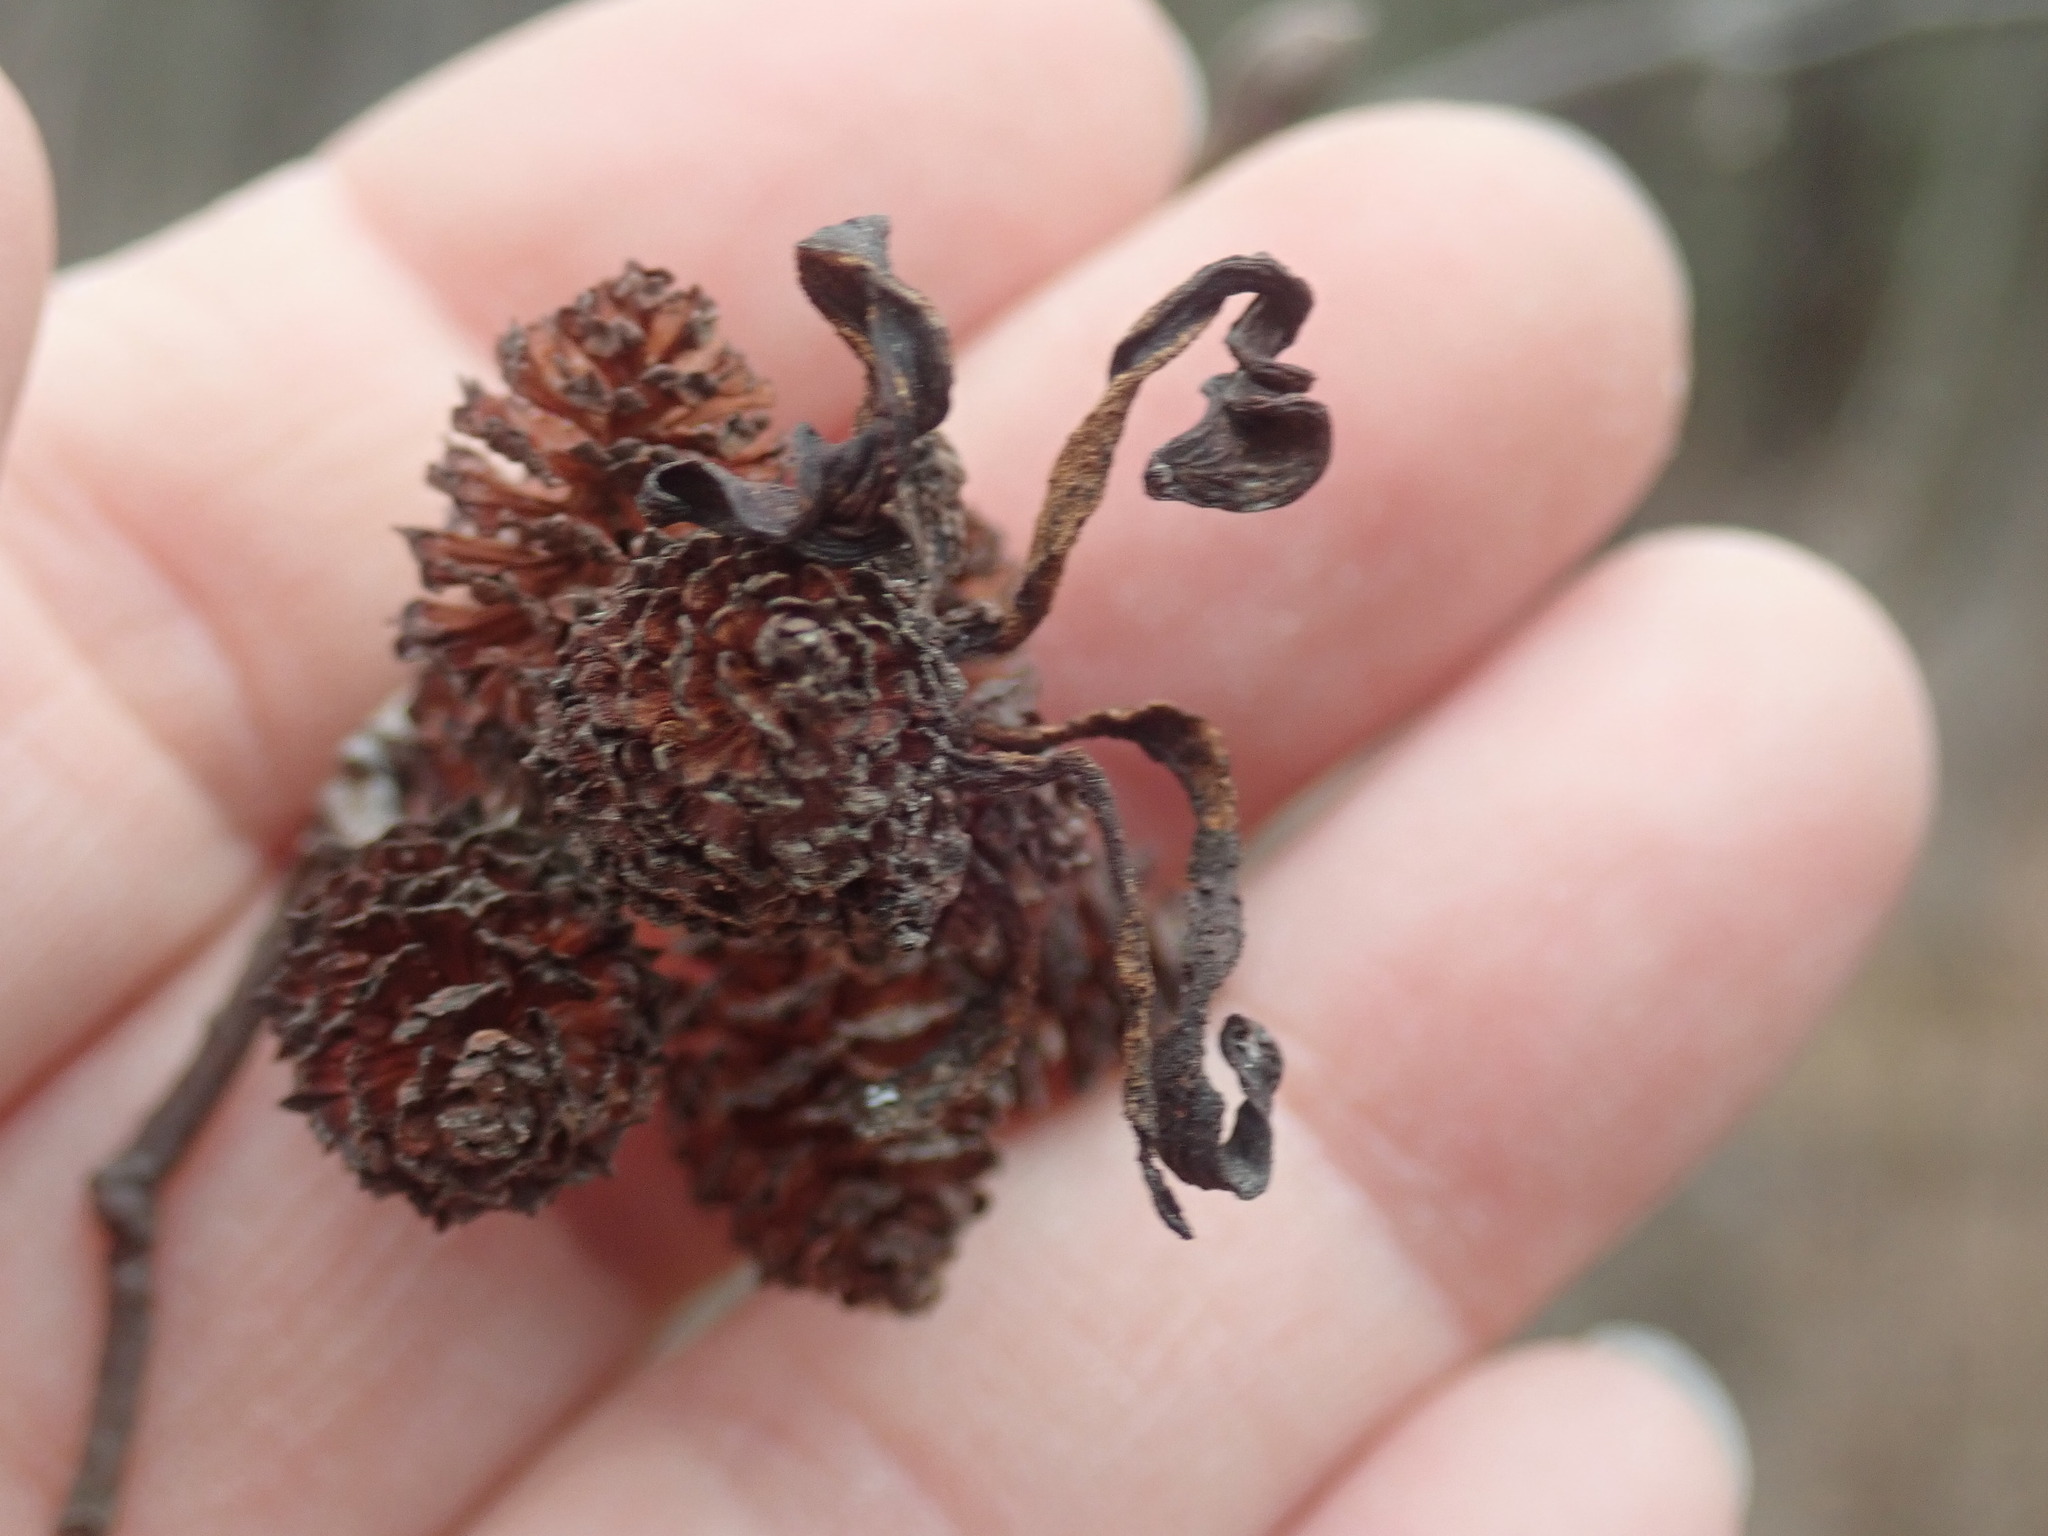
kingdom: Fungi
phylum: Ascomycota
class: Taphrinomycetes
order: Taphrinales
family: Taphrinaceae
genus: Taphrina
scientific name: Taphrina robinsoniana
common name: Eastern american alder tongue gall fungus
